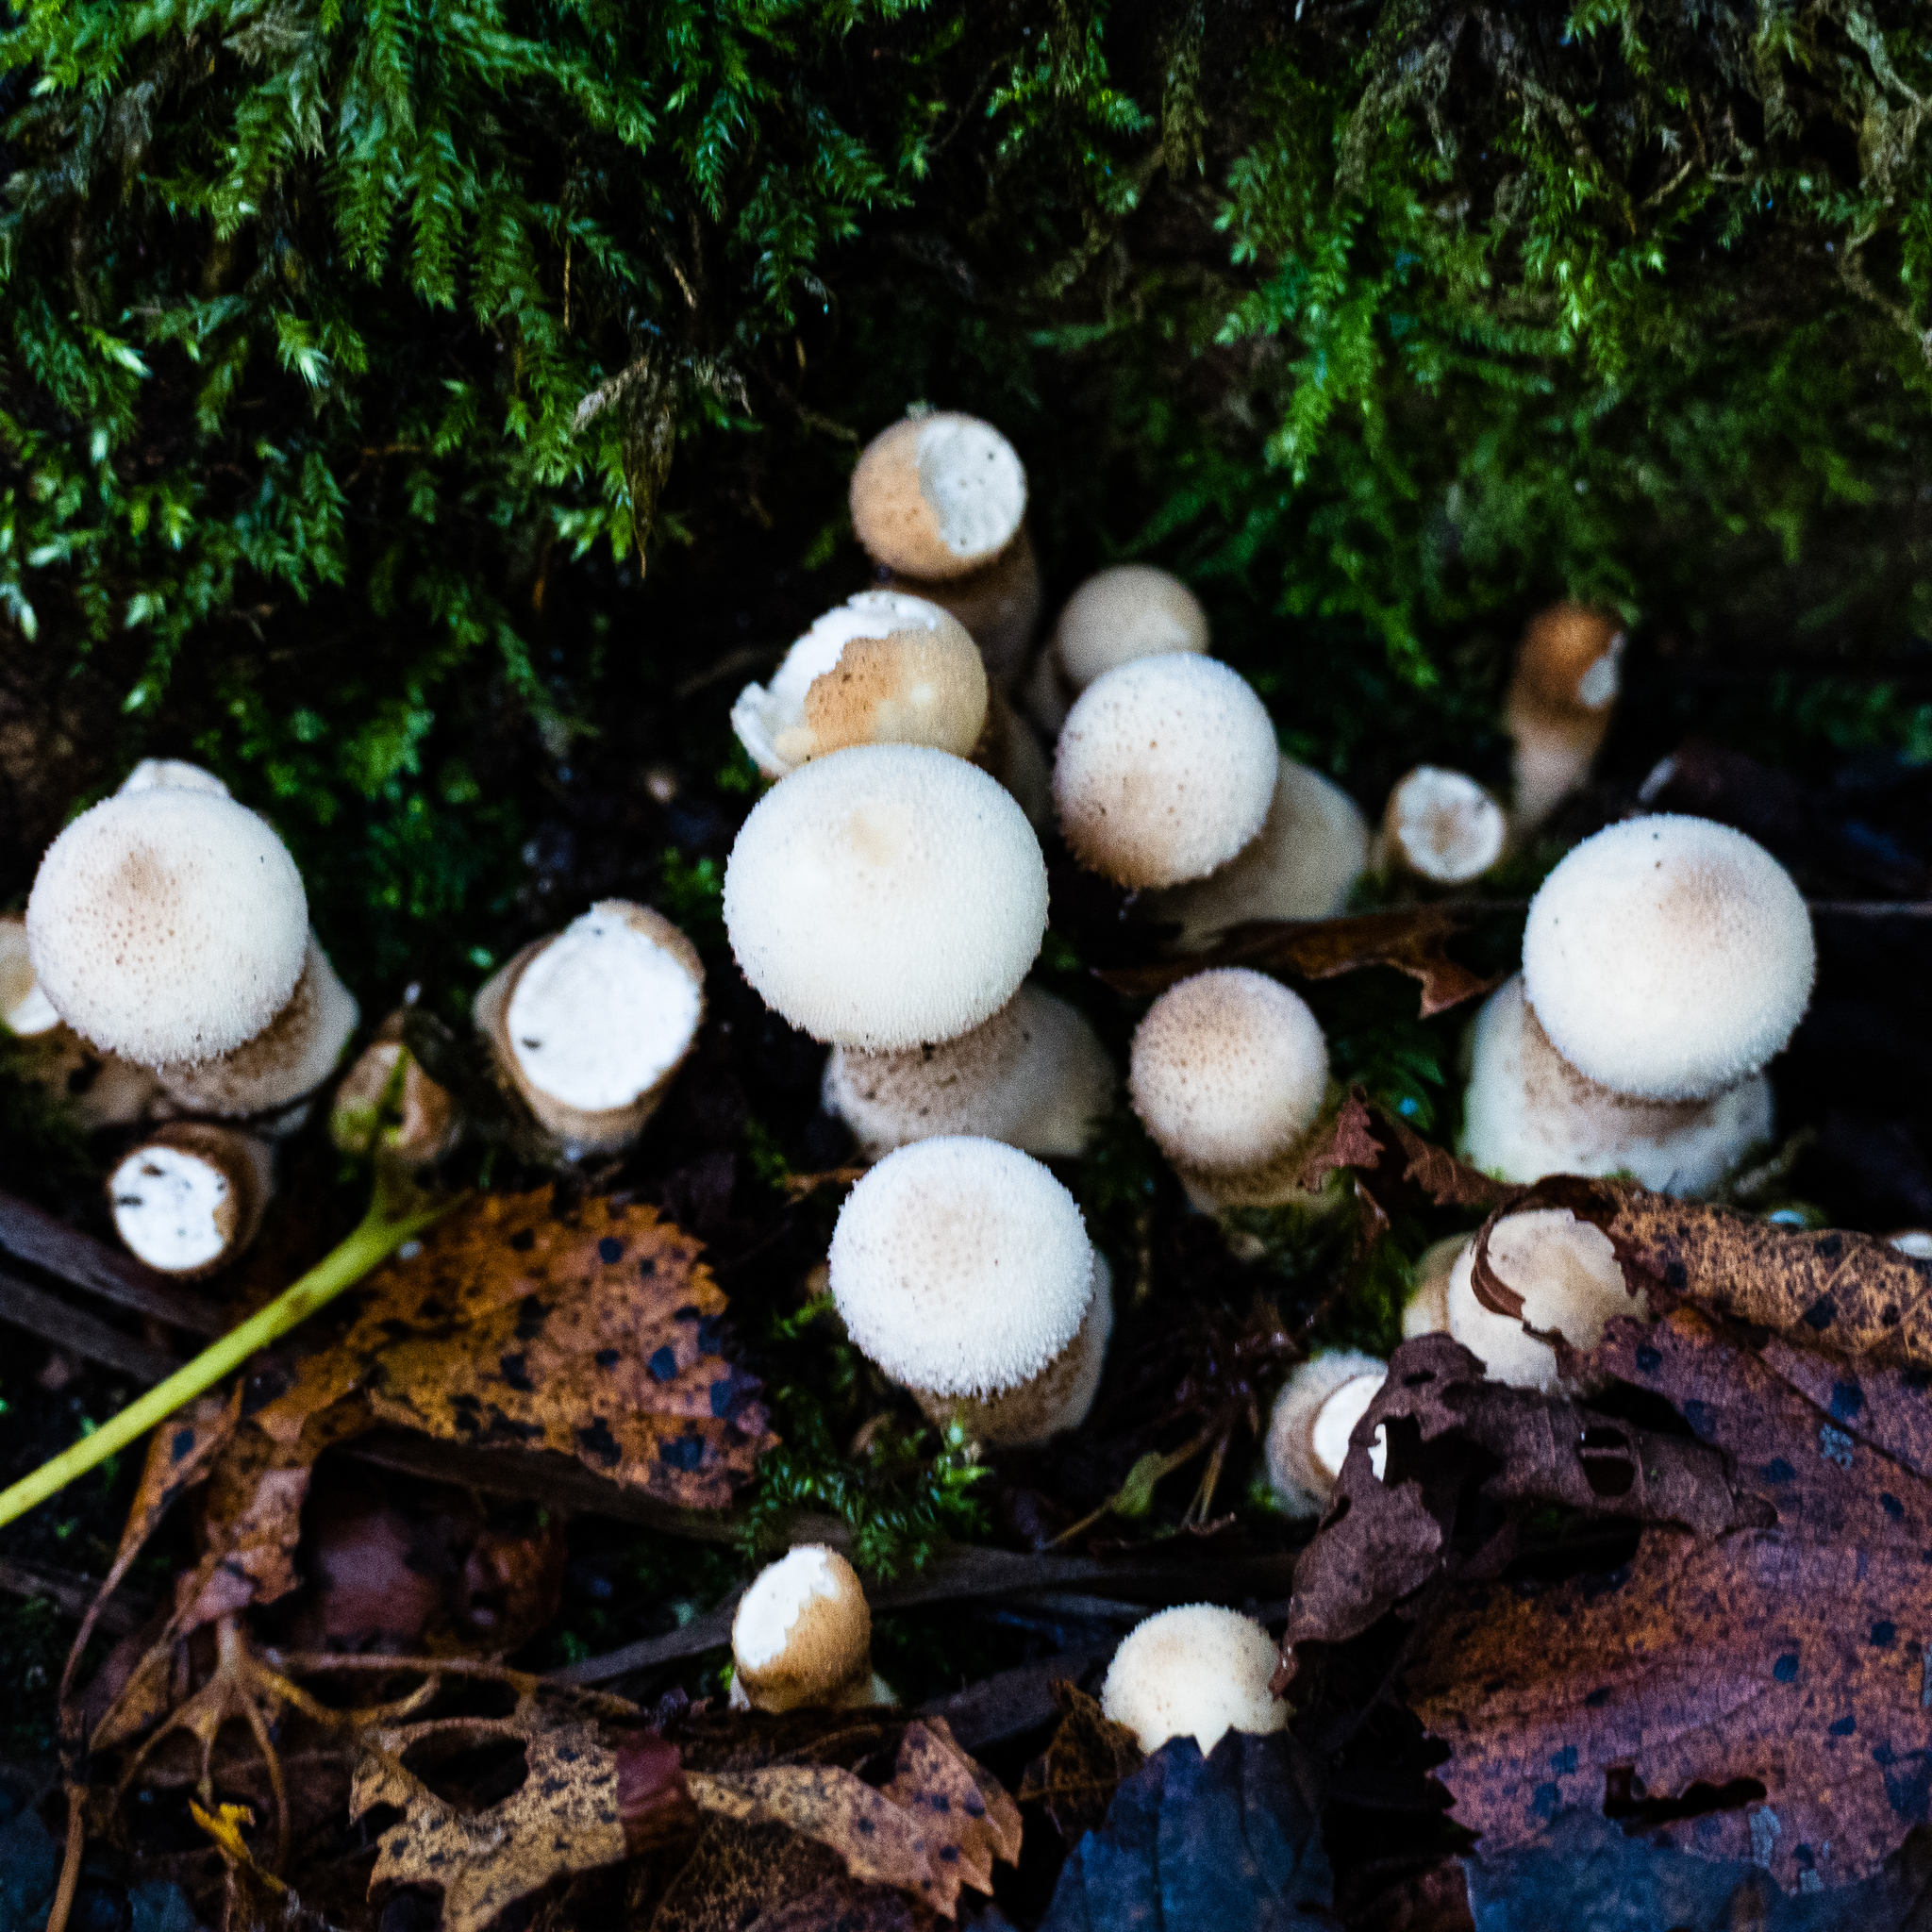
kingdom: Fungi
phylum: Basidiomycota
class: Agaricomycetes
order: Agaricales
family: Lycoperdaceae
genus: Lycoperdon
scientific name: Lycoperdon perlatum
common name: Common puffball
